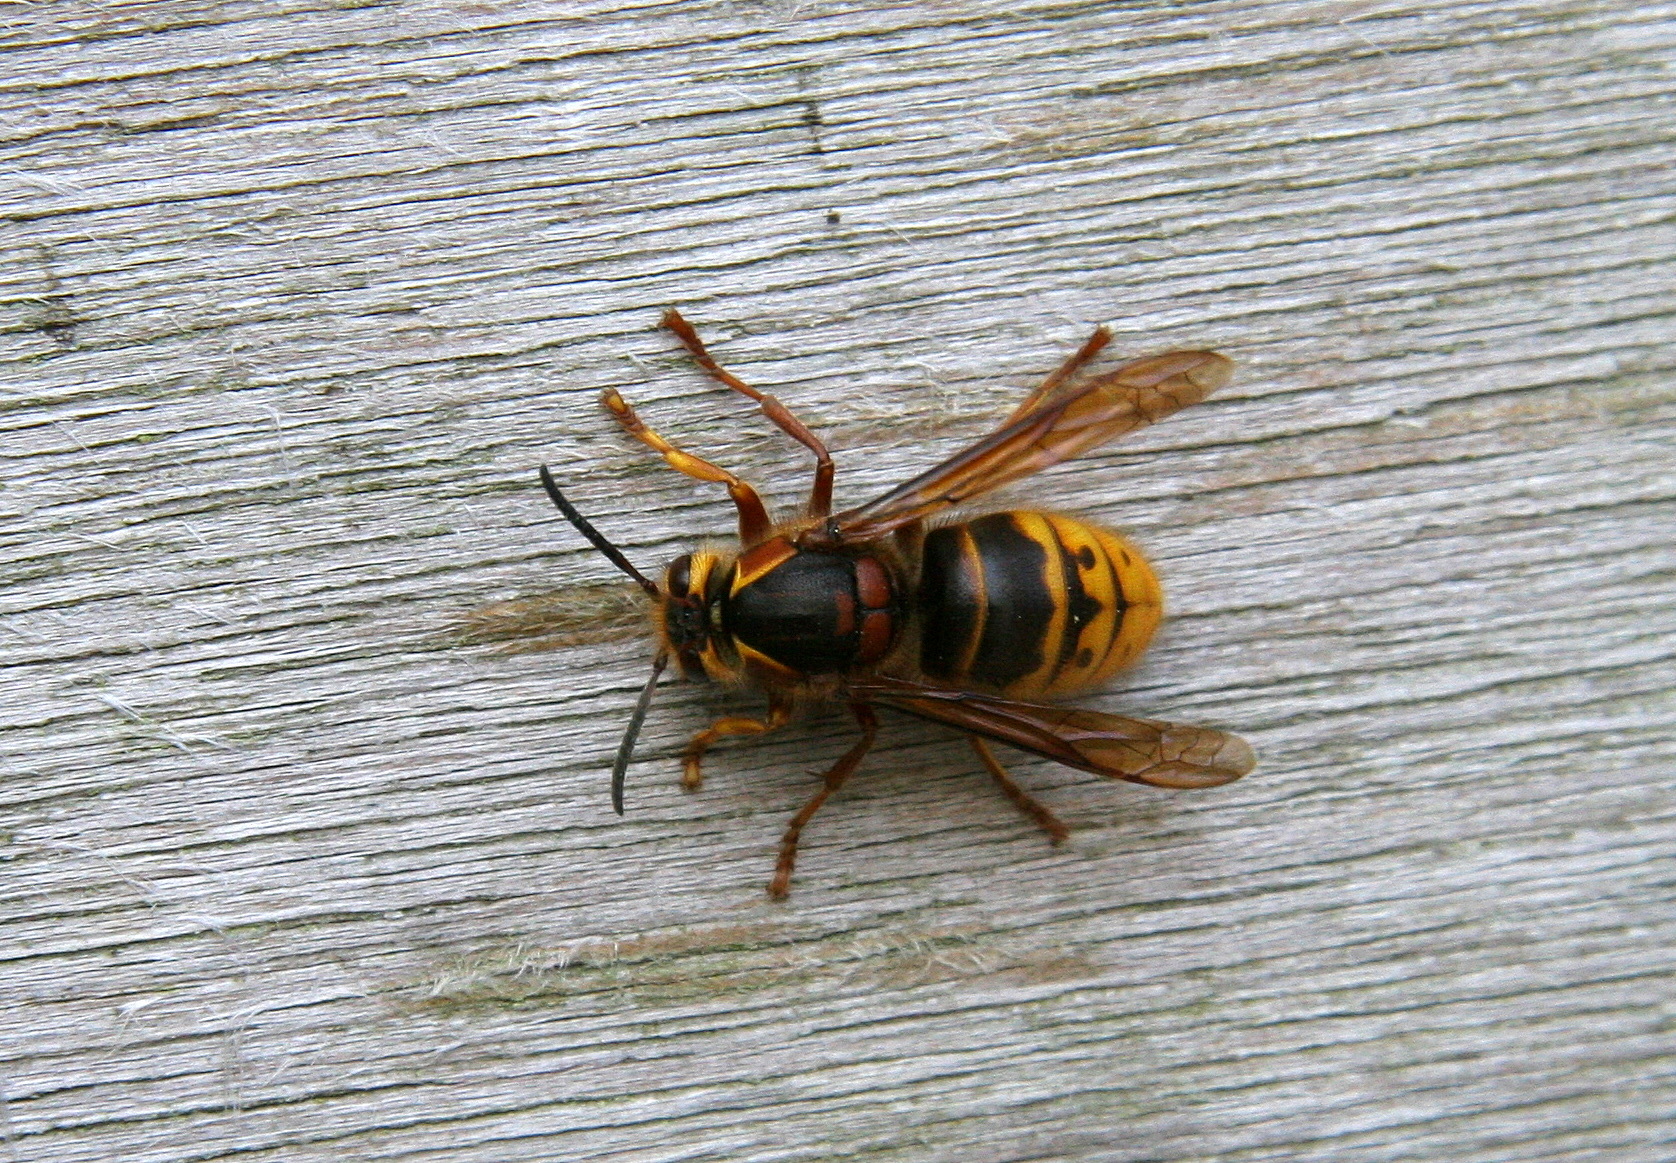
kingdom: Animalia
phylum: Arthropoda
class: Insecta
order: Hymenoptera
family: Vespidae
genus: Dolichovespula
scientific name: Dolichovespula media
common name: Median wasp
